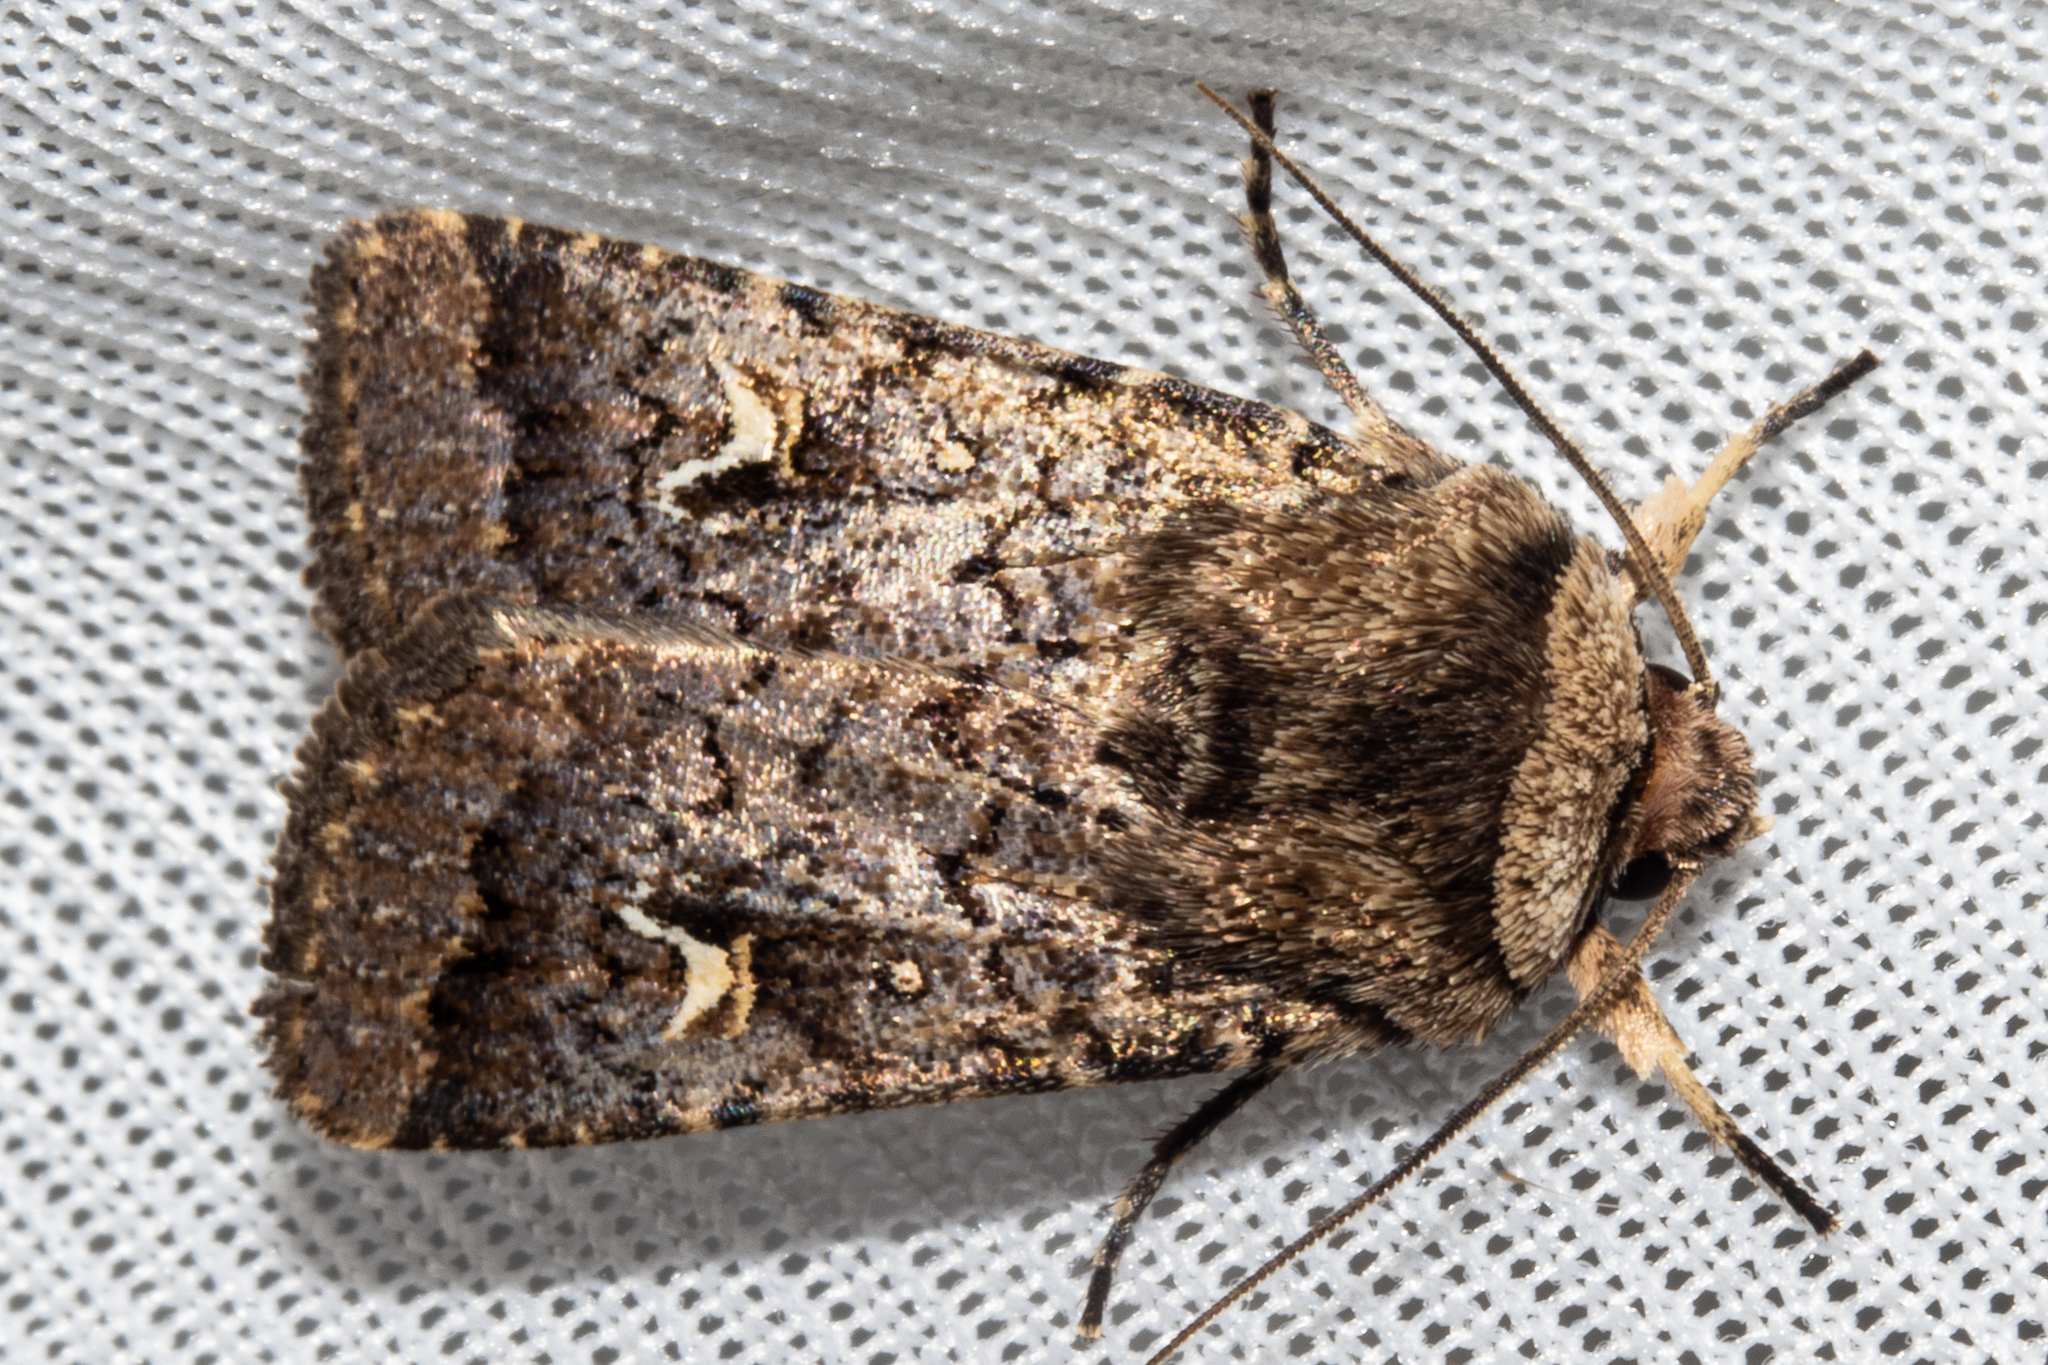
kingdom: Animalia
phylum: Arthropoda
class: Insecta
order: Lepidoptera
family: Noctuidae
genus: Proteuxoa
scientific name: Proteuxoa tetronycha
